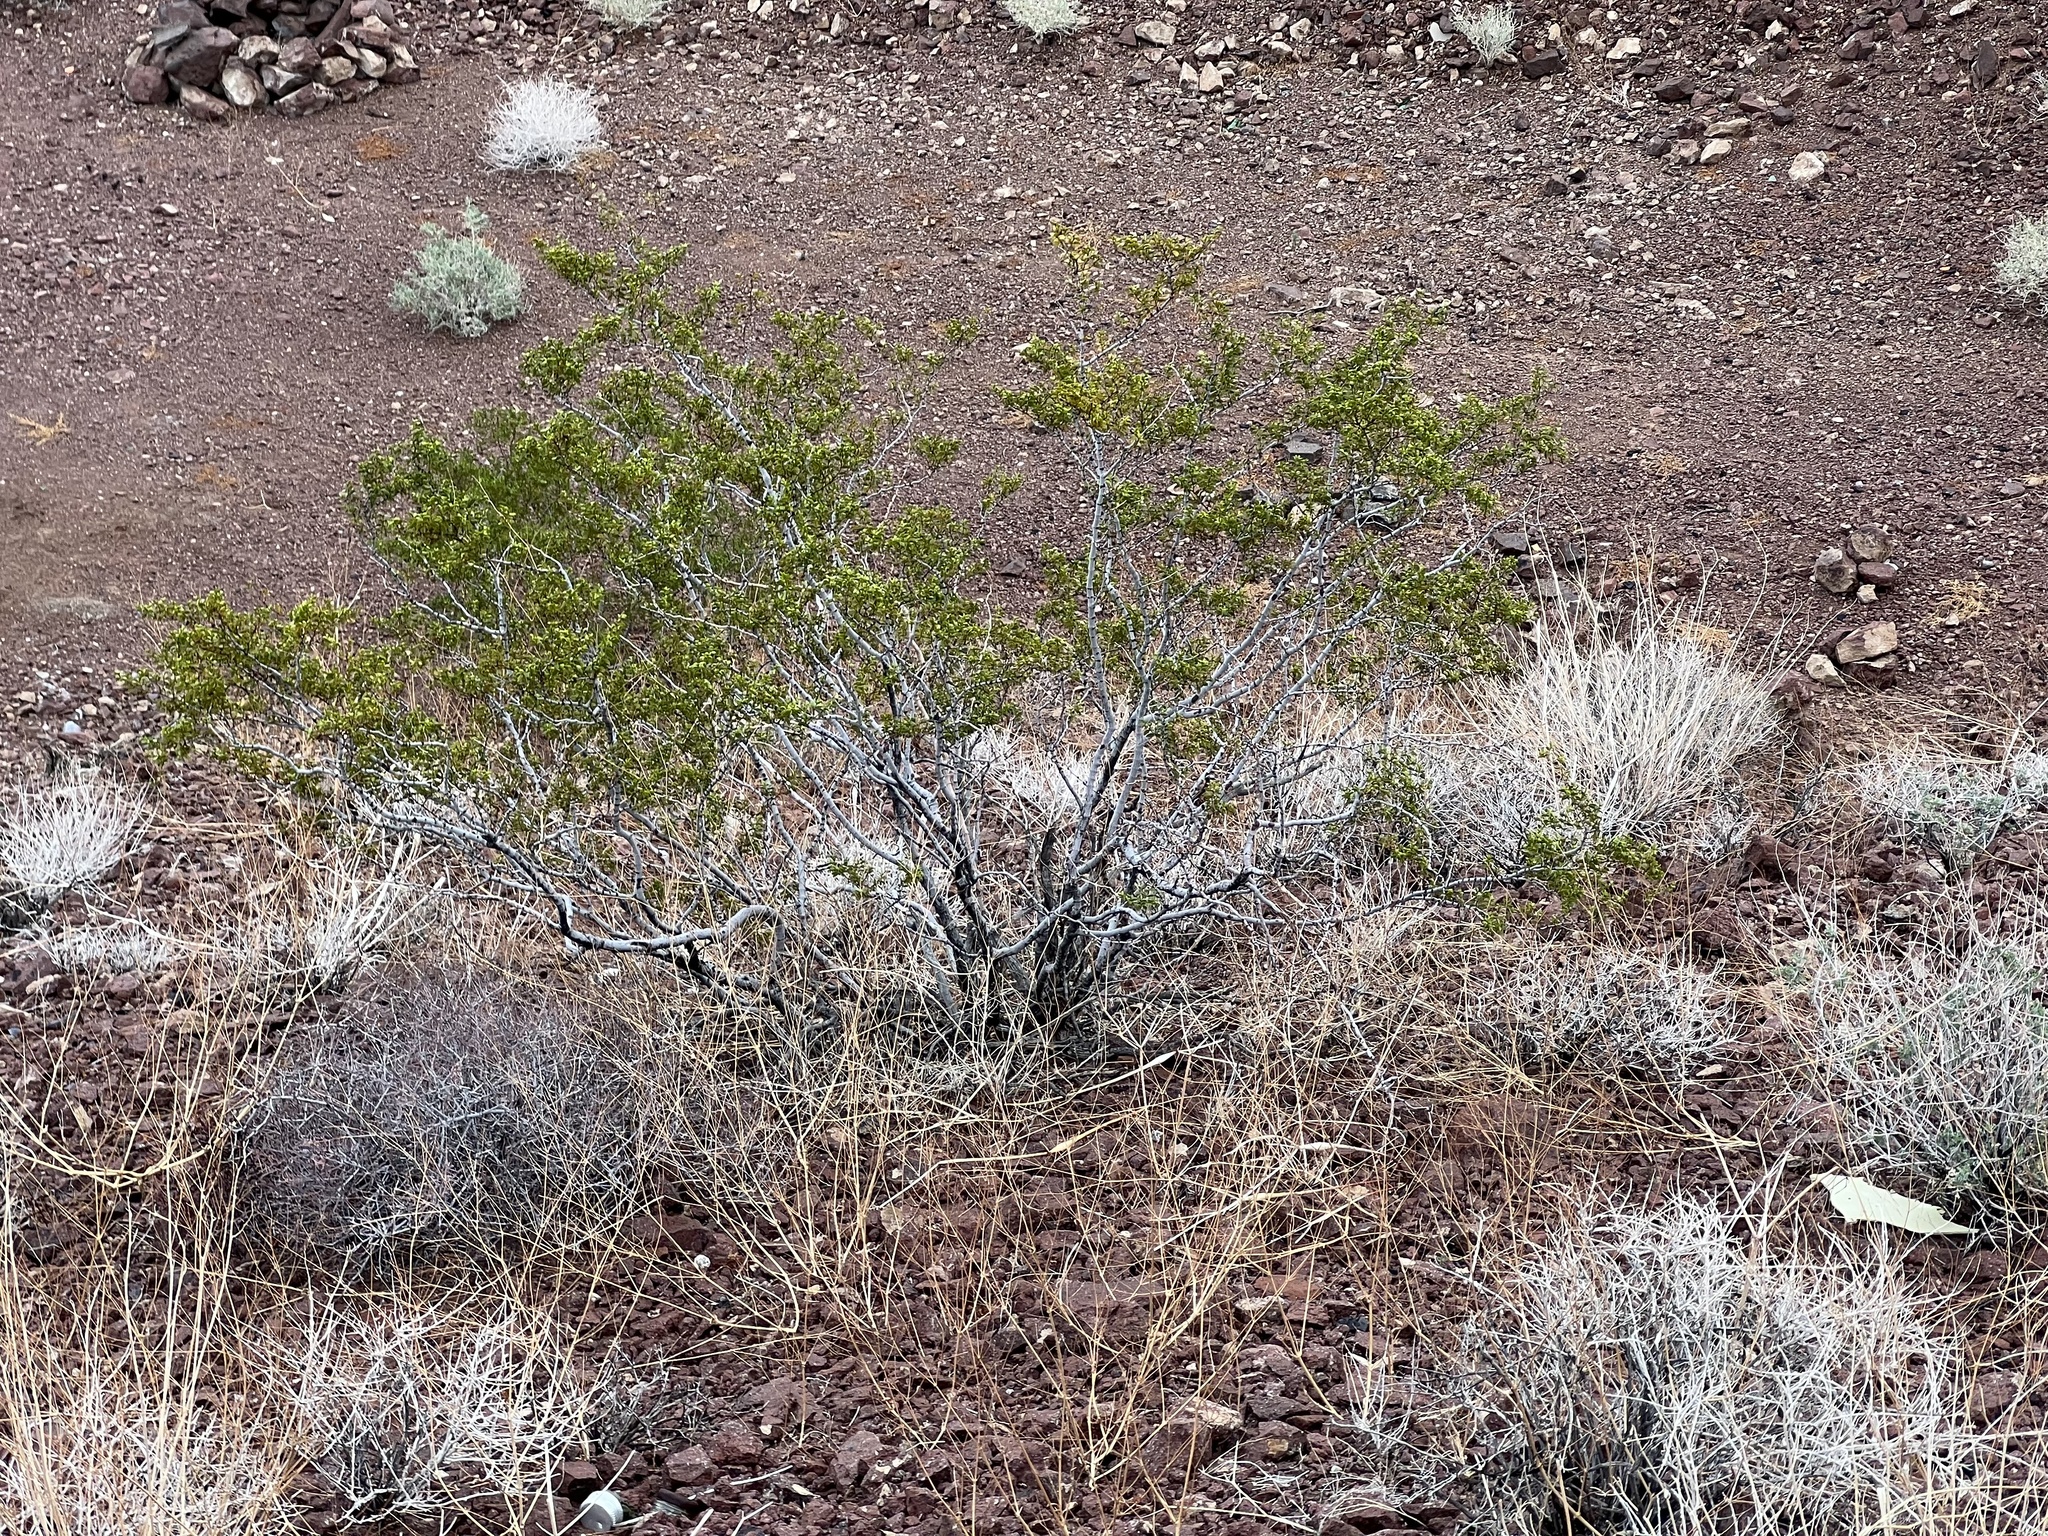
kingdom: Plantae
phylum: Tracheophyta
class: Magnoliopsida
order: Zygophyllales
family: Zygophyllaceae
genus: Larrea
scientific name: Larrea tridentata
